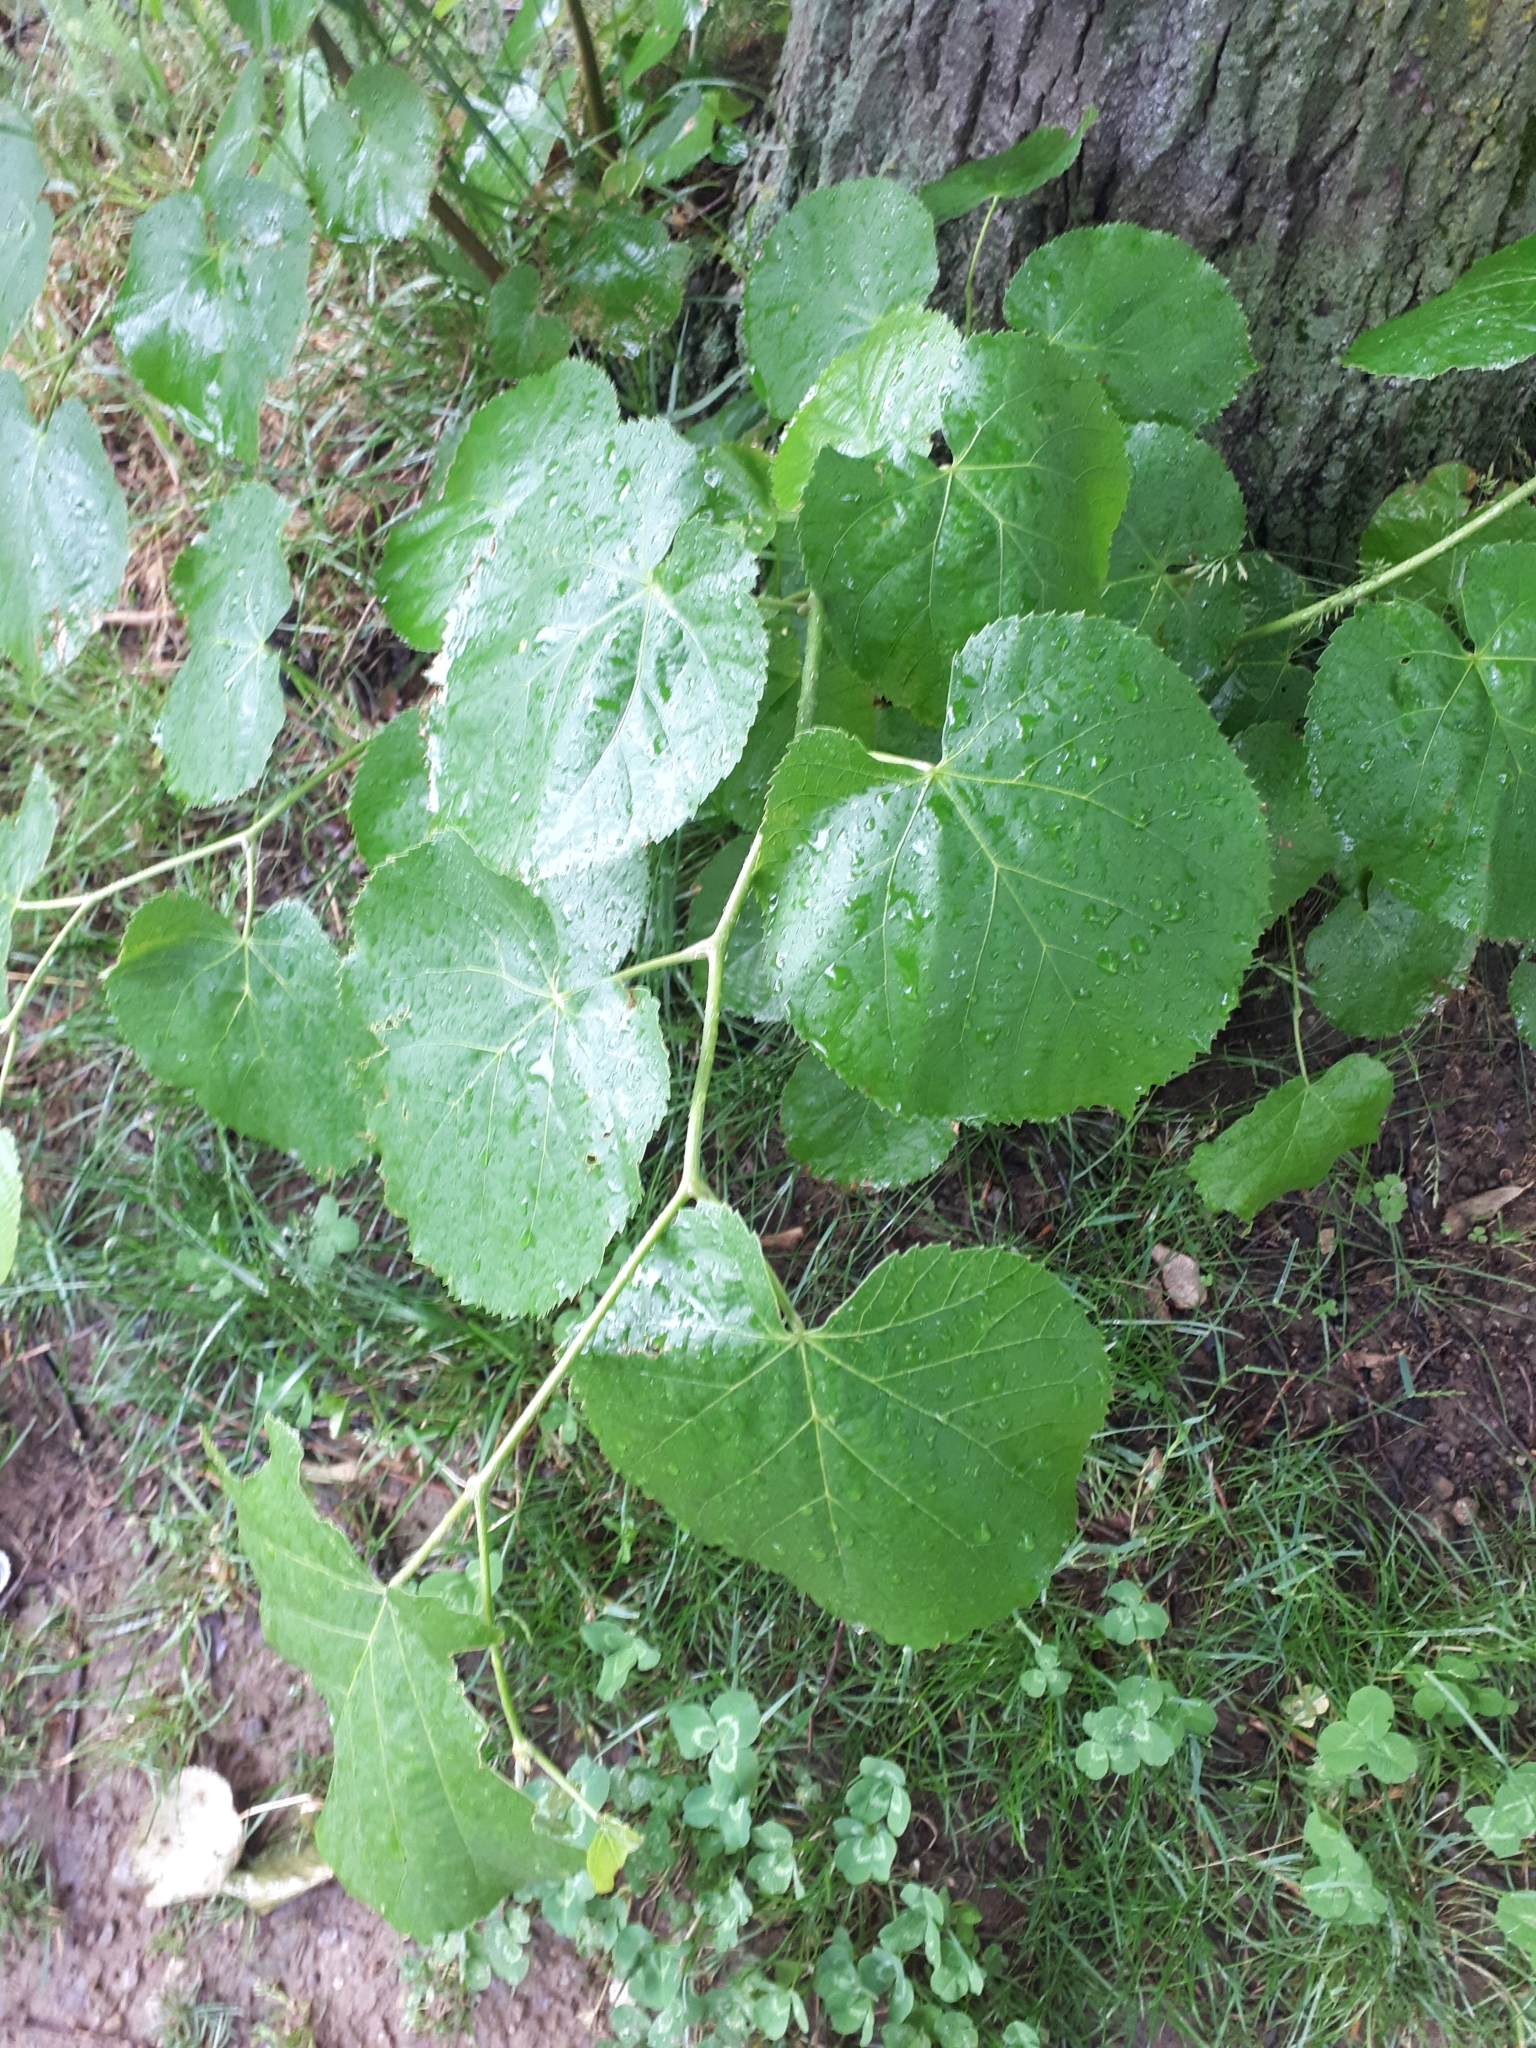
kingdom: Plantae
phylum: Tracheophyta
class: Magnoliopsida
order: Malvales
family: Malvaceae
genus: Tilia
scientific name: Tilia tomentosa
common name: Silver lime
